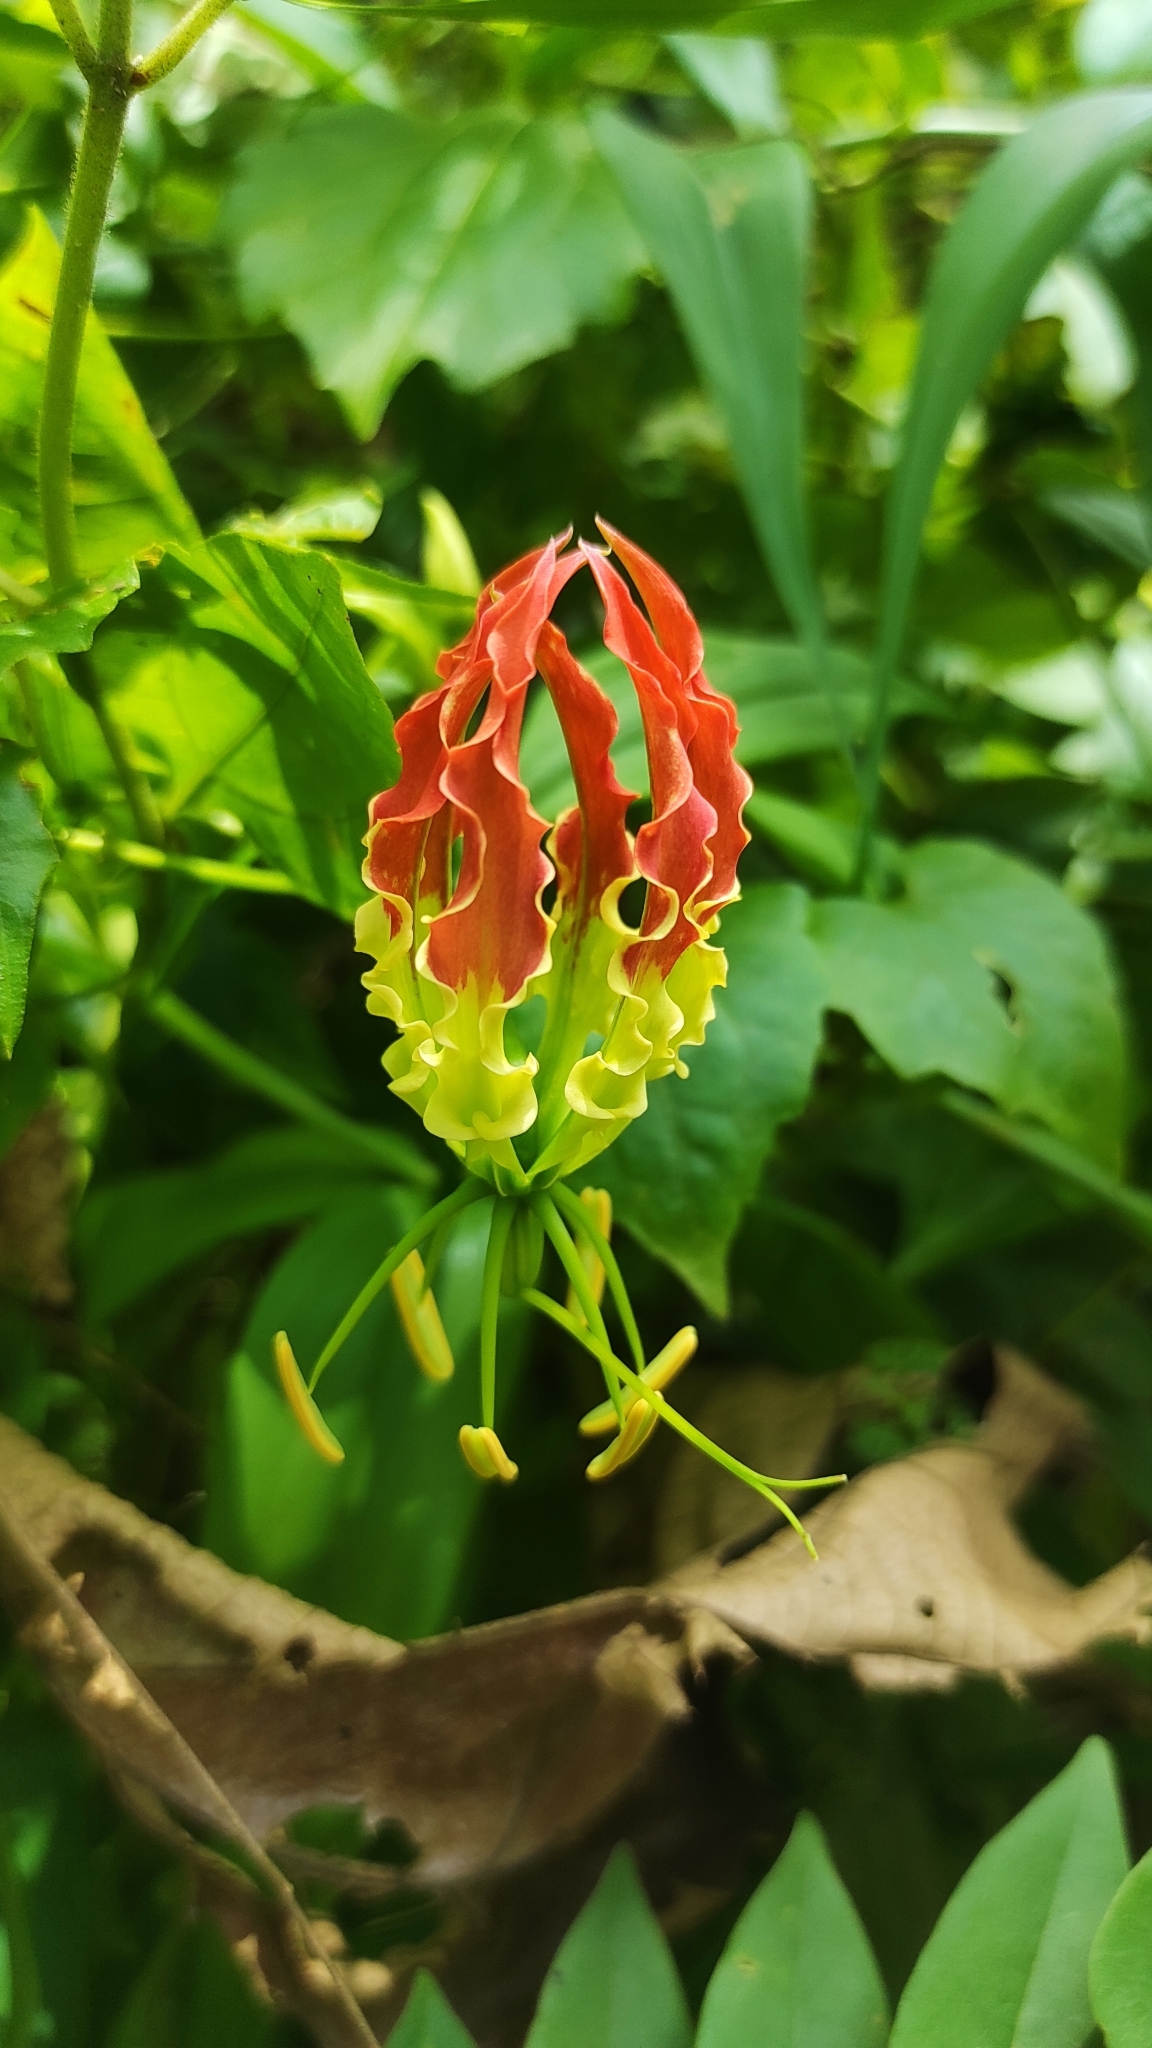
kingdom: Plantae
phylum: Tracheophyta
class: Liliopsida
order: Liliales
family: Colchicaceae
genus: Gloriosa
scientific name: Gloriosa superba
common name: Flame lily
